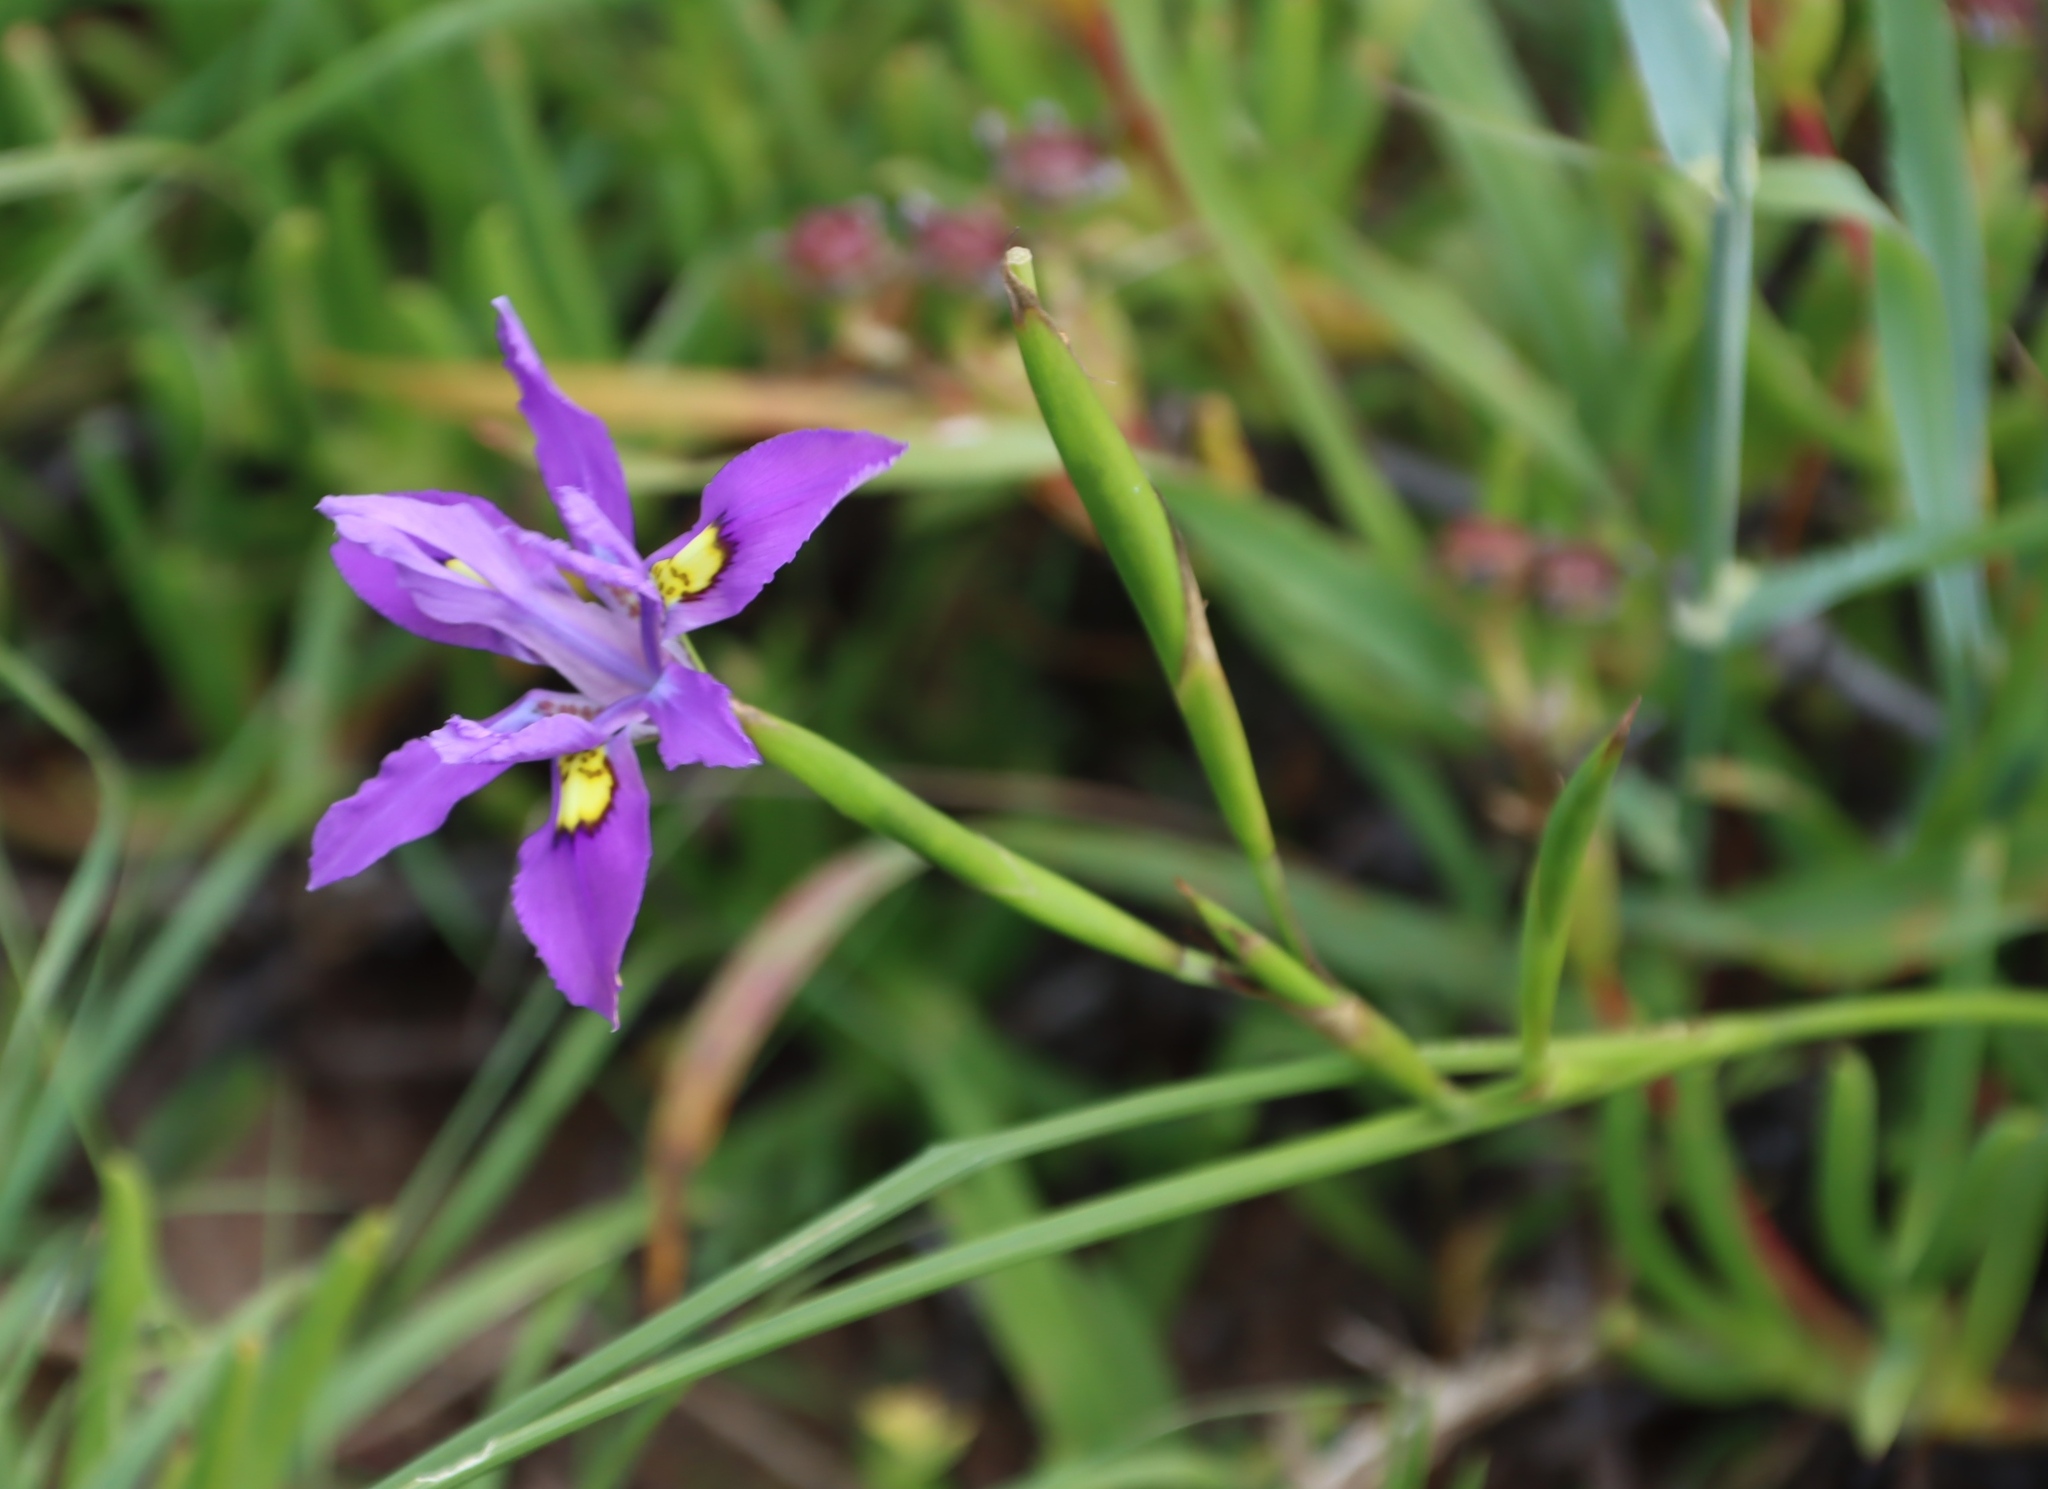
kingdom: Plantae
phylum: Tracheophyta
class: Liliopsida
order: Asparagales
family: Iridaceae
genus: Moraea
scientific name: Moraea fugax
